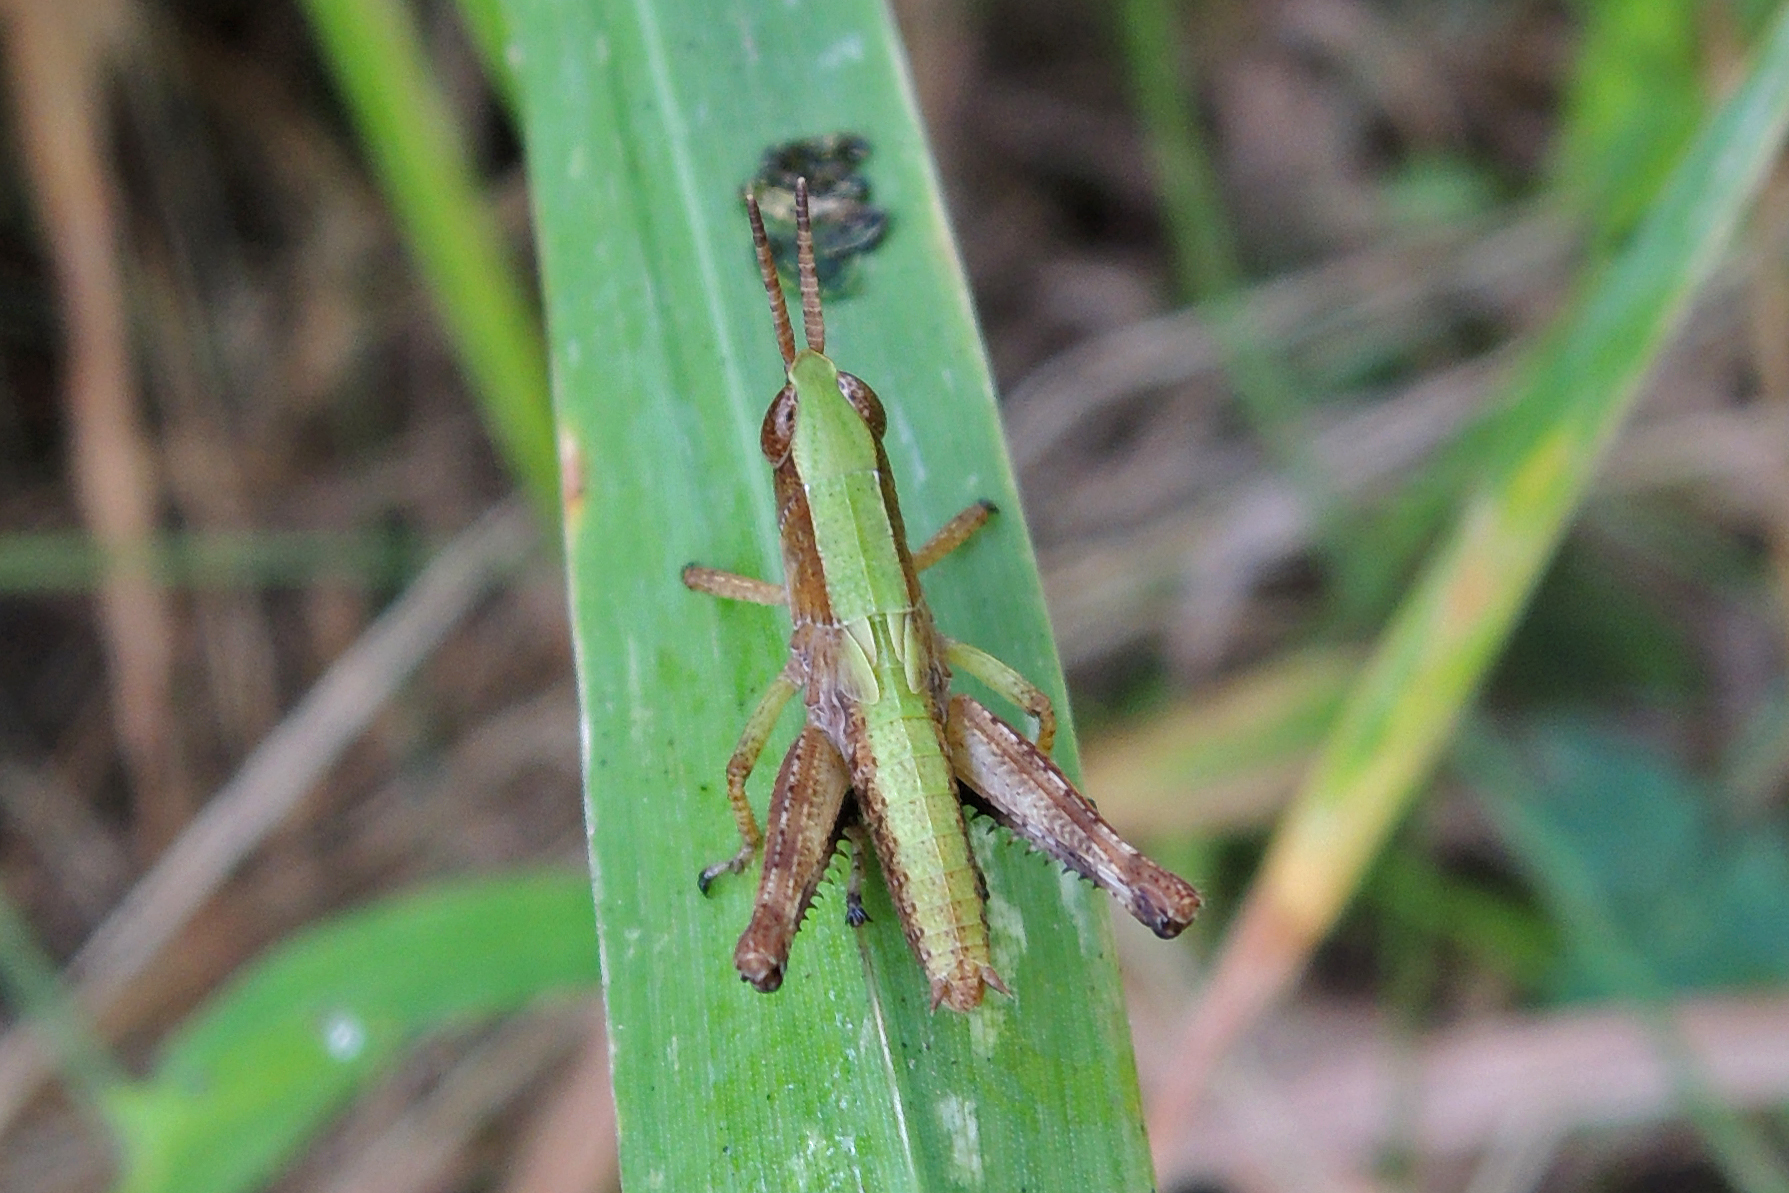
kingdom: Animalia
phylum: Arthropoda
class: Insecta
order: Orthoptera
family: Acrididae
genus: Dichromorpha
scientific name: Dichromorpha viridis
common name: Short-winged green grasshopper
